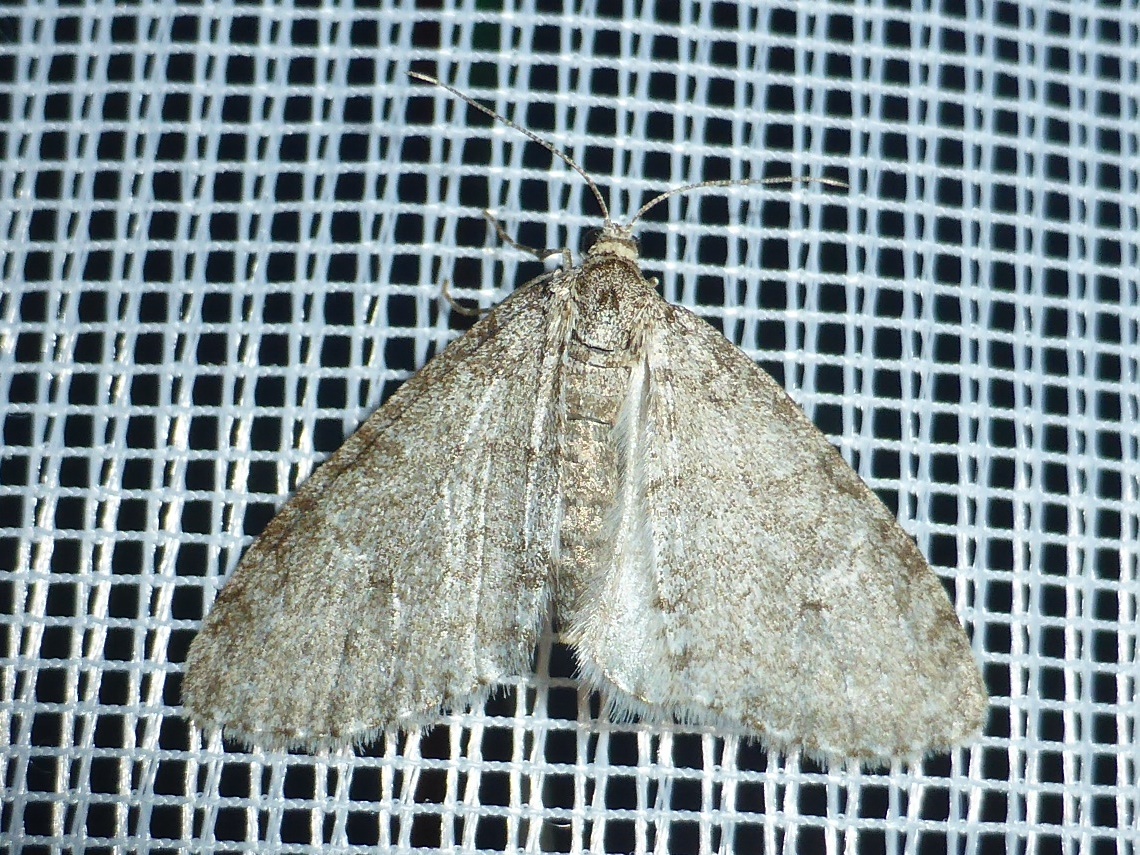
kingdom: Animalia
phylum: Arthropoda
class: Insecta
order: Lepidoptera
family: Geometridae
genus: Trichopteryx
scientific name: Trichopteryx carpinata
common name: Early tooth-striped
